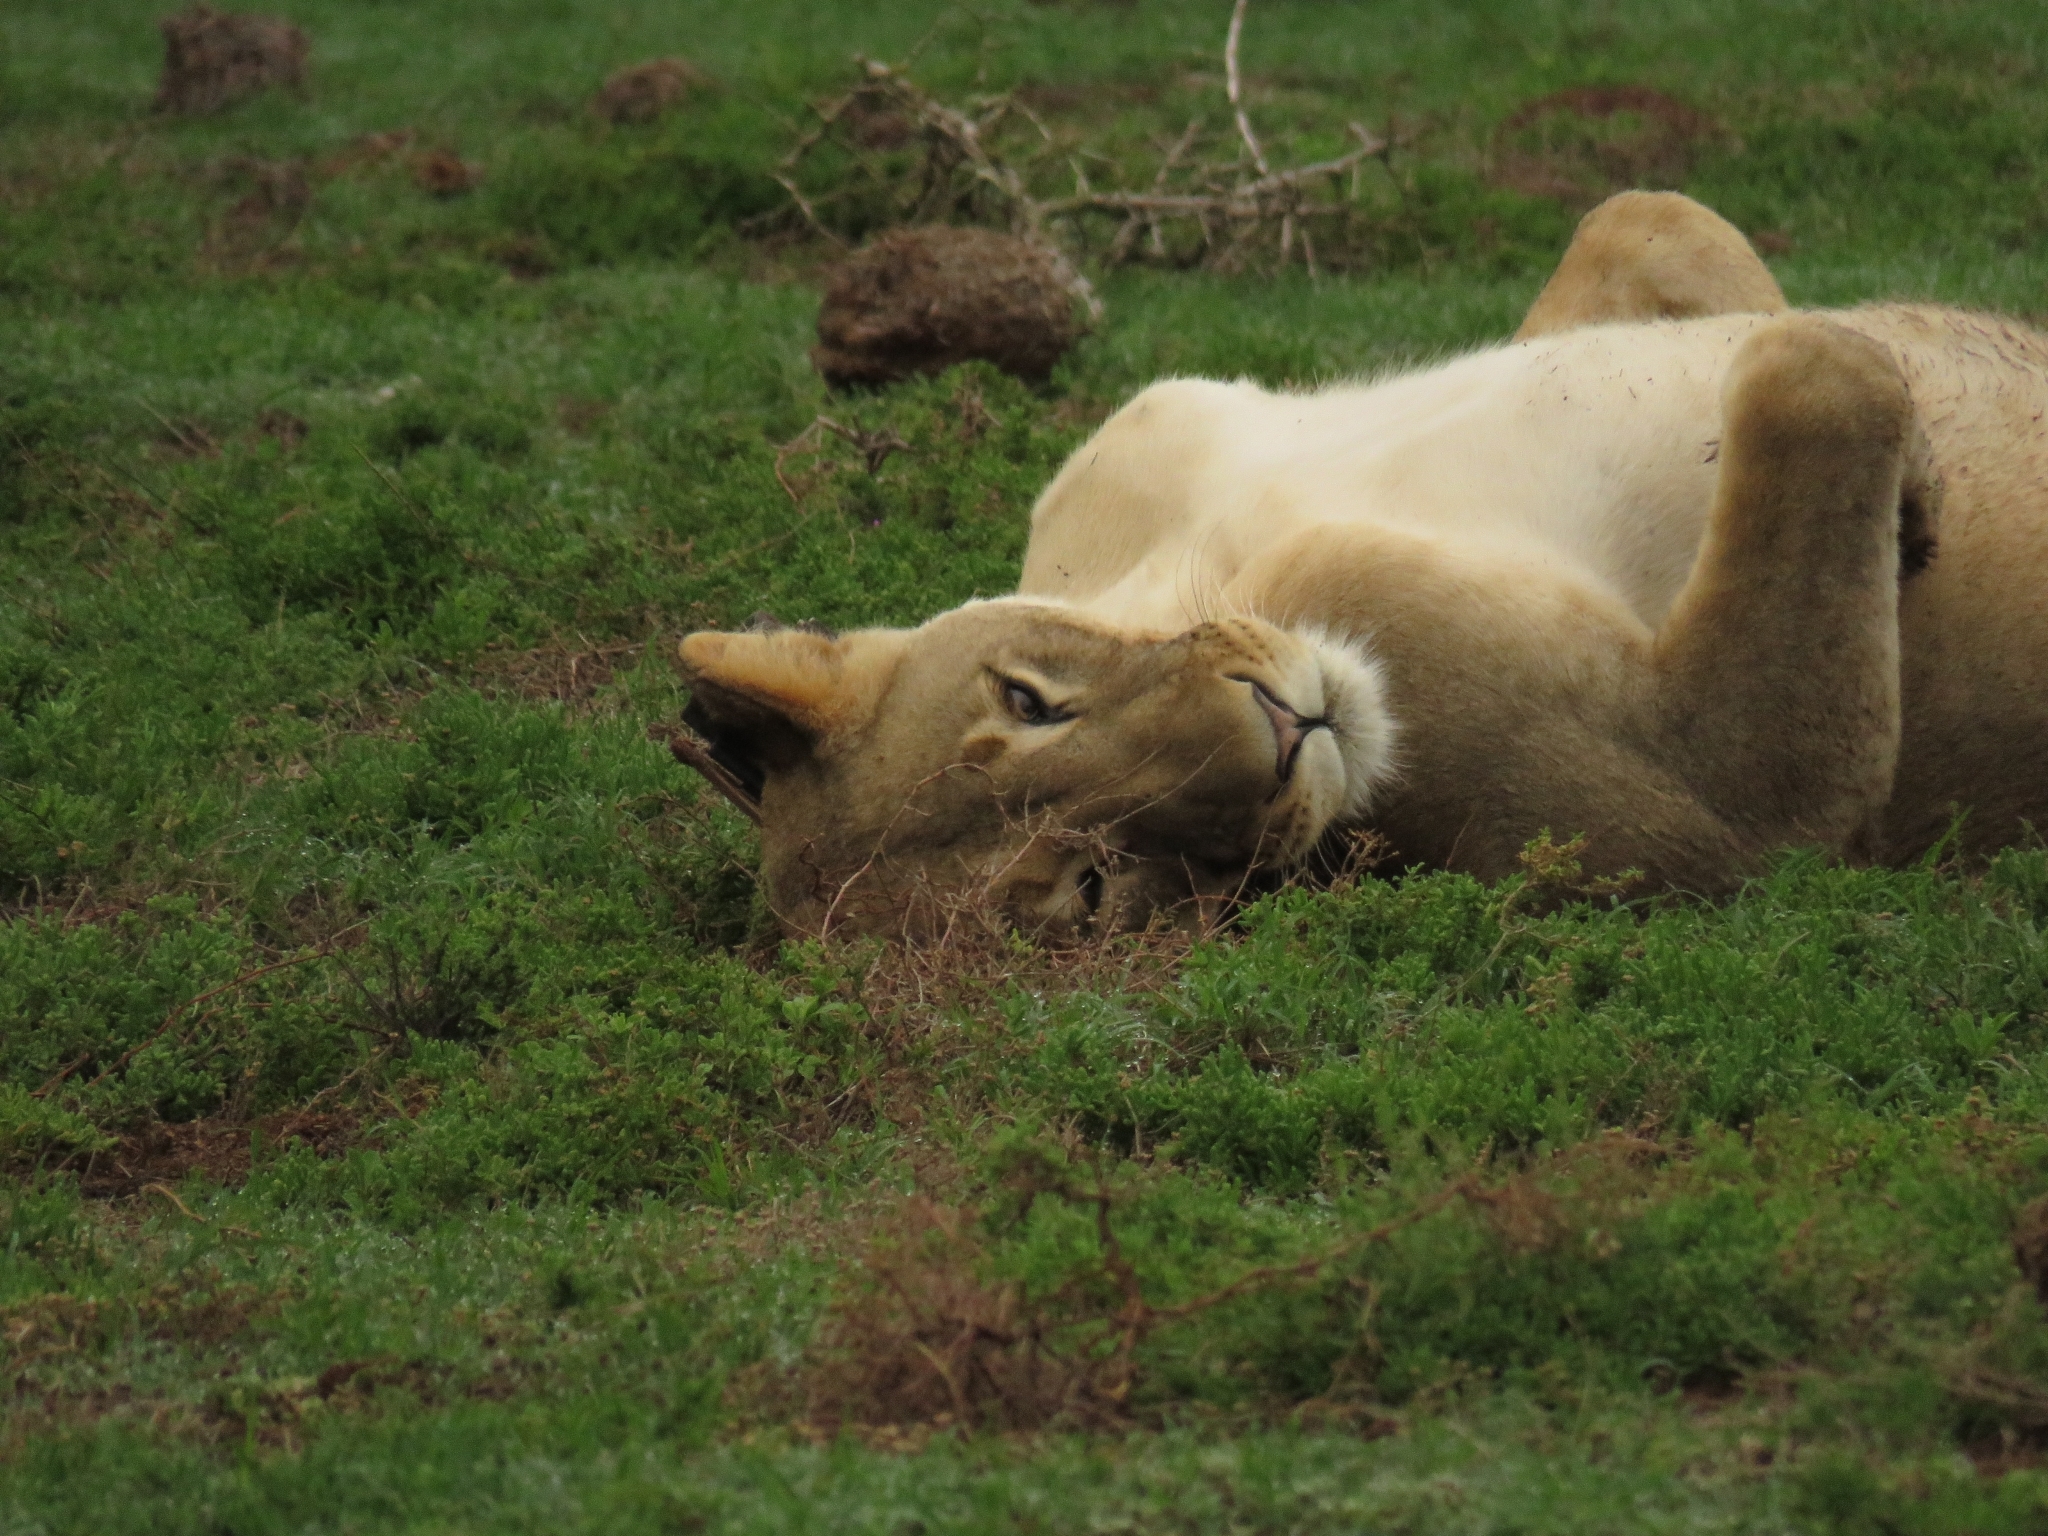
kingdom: Animalia
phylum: Chordata
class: Mammalia
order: Carnivora
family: Felidae
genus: Panthera
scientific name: Panthera leo
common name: Lion
